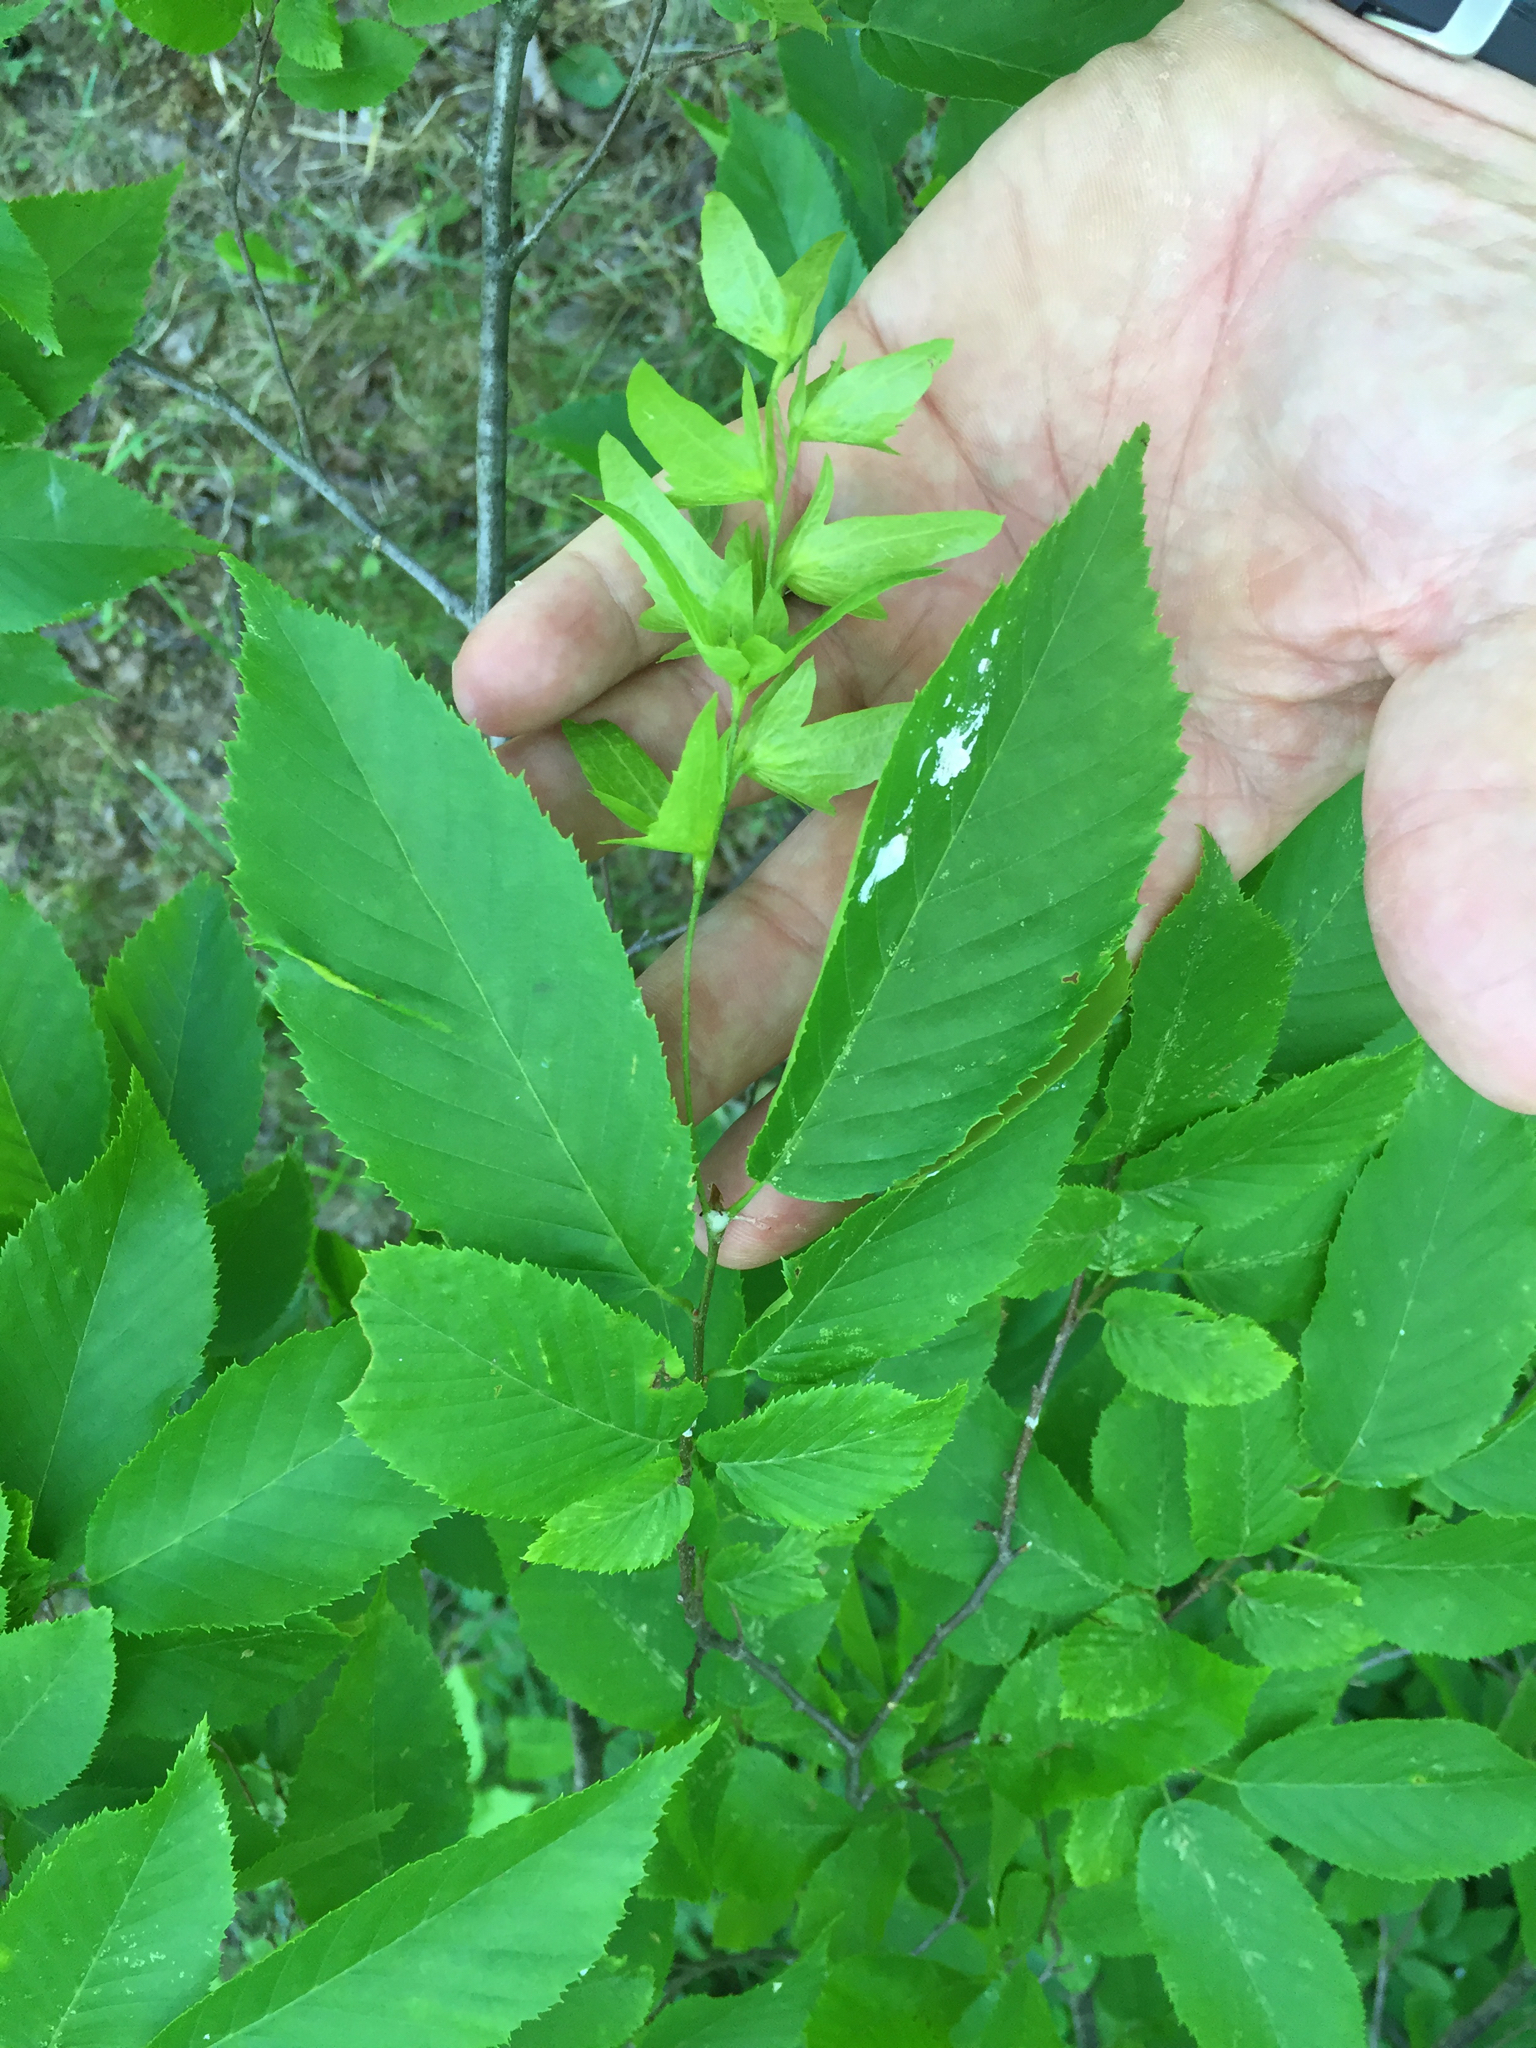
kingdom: Plantae
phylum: Tracheophyta
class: Magnoliopsida
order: Fagales
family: Betulaceae
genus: Carpinus
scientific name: Carpinus caroliniana
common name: American hornbeam
